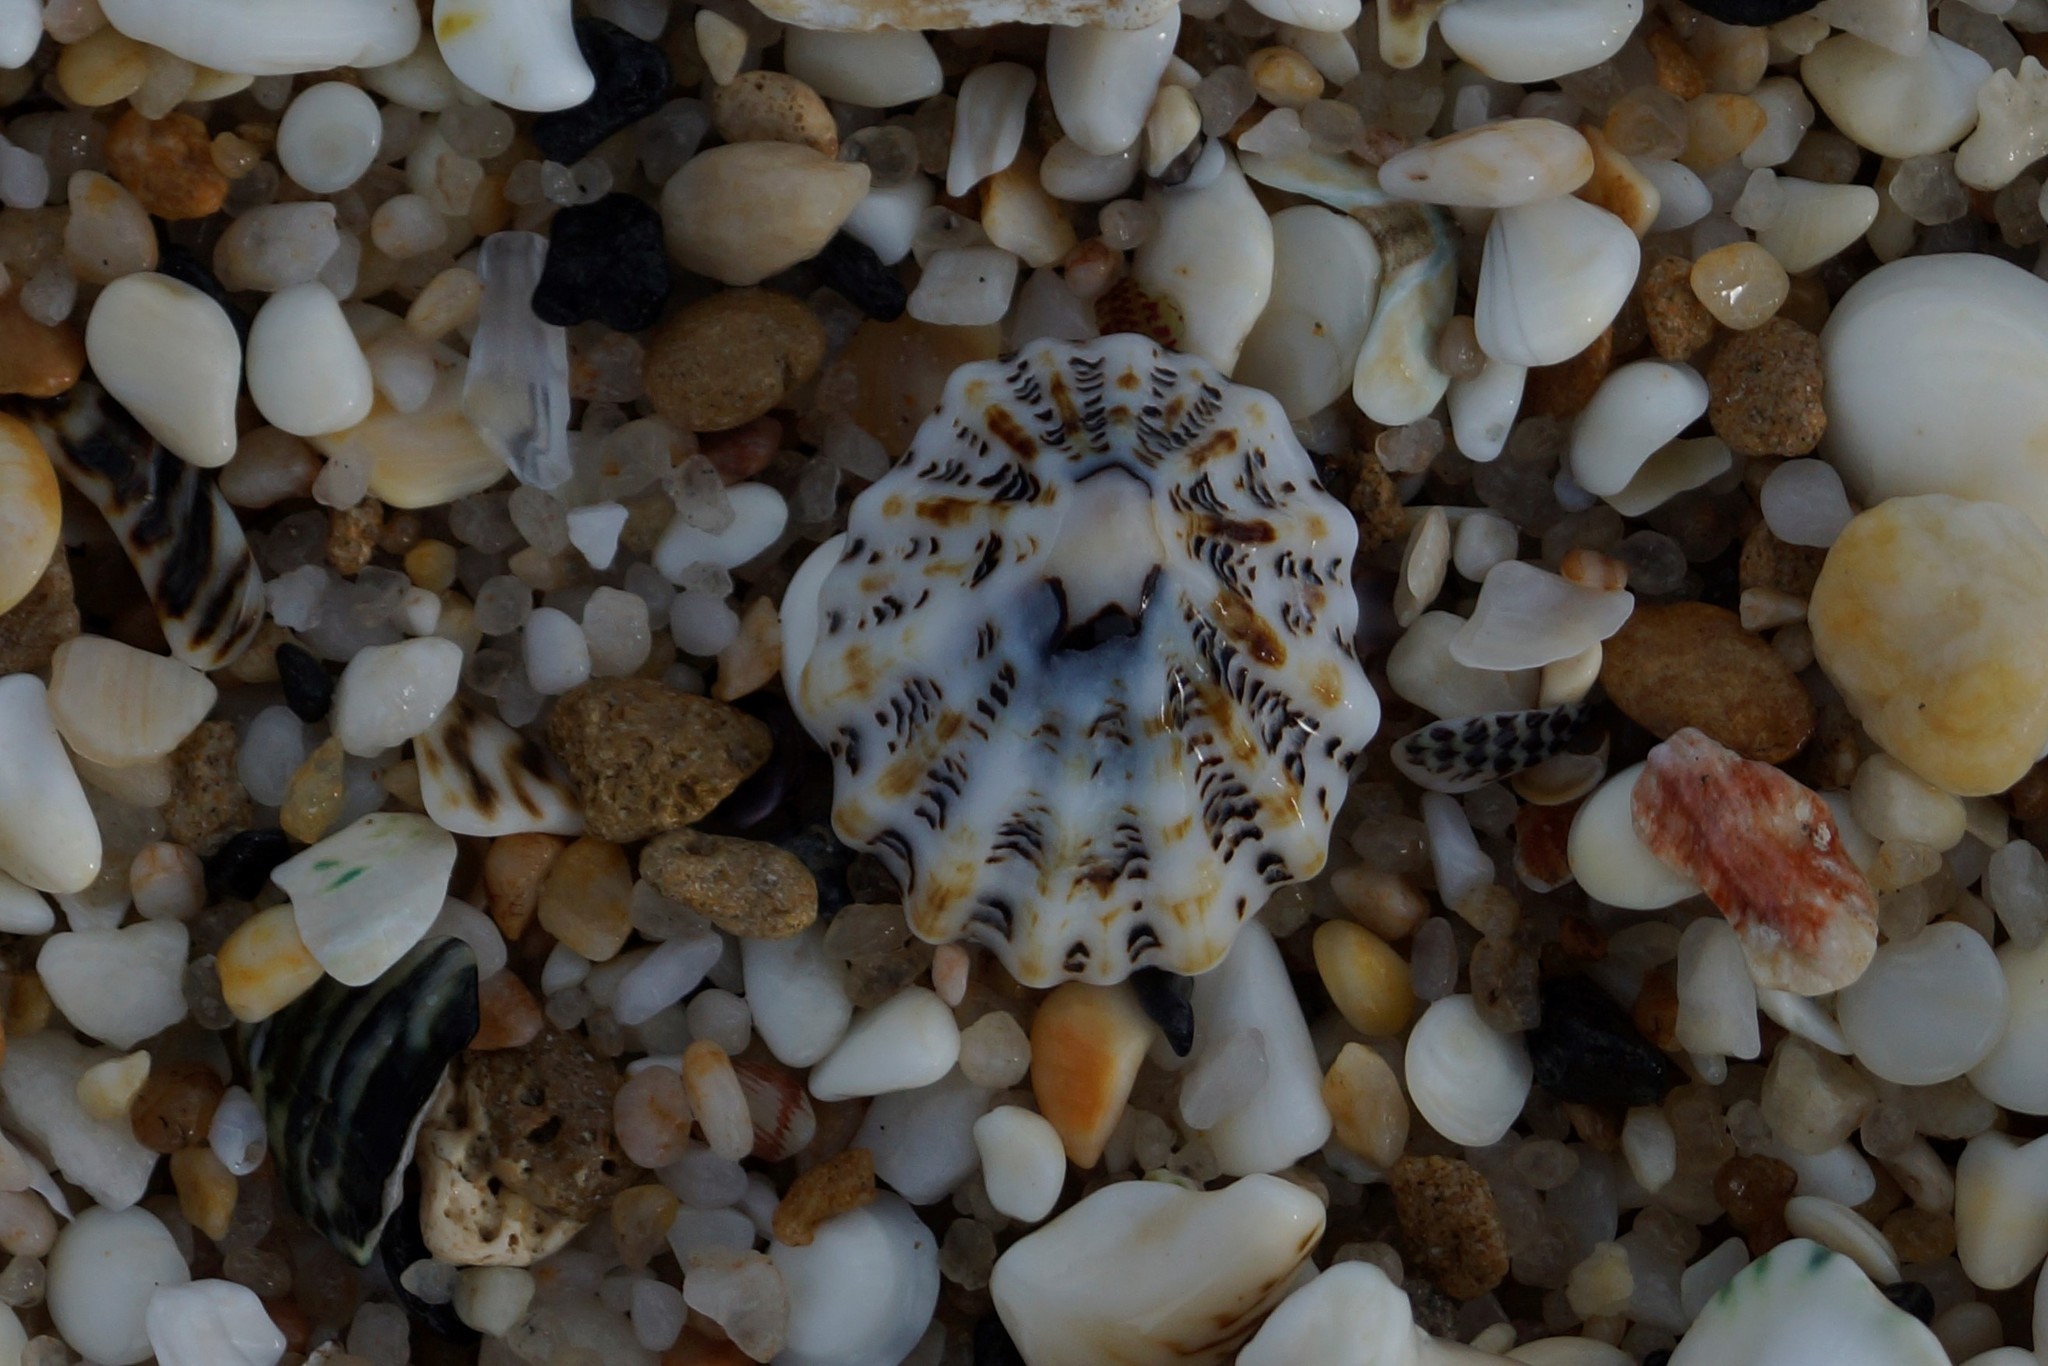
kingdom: Animalia
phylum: Mollusca
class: Gastropoda
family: Lottiidae
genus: Patelloida
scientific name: Patelloida alticostata
